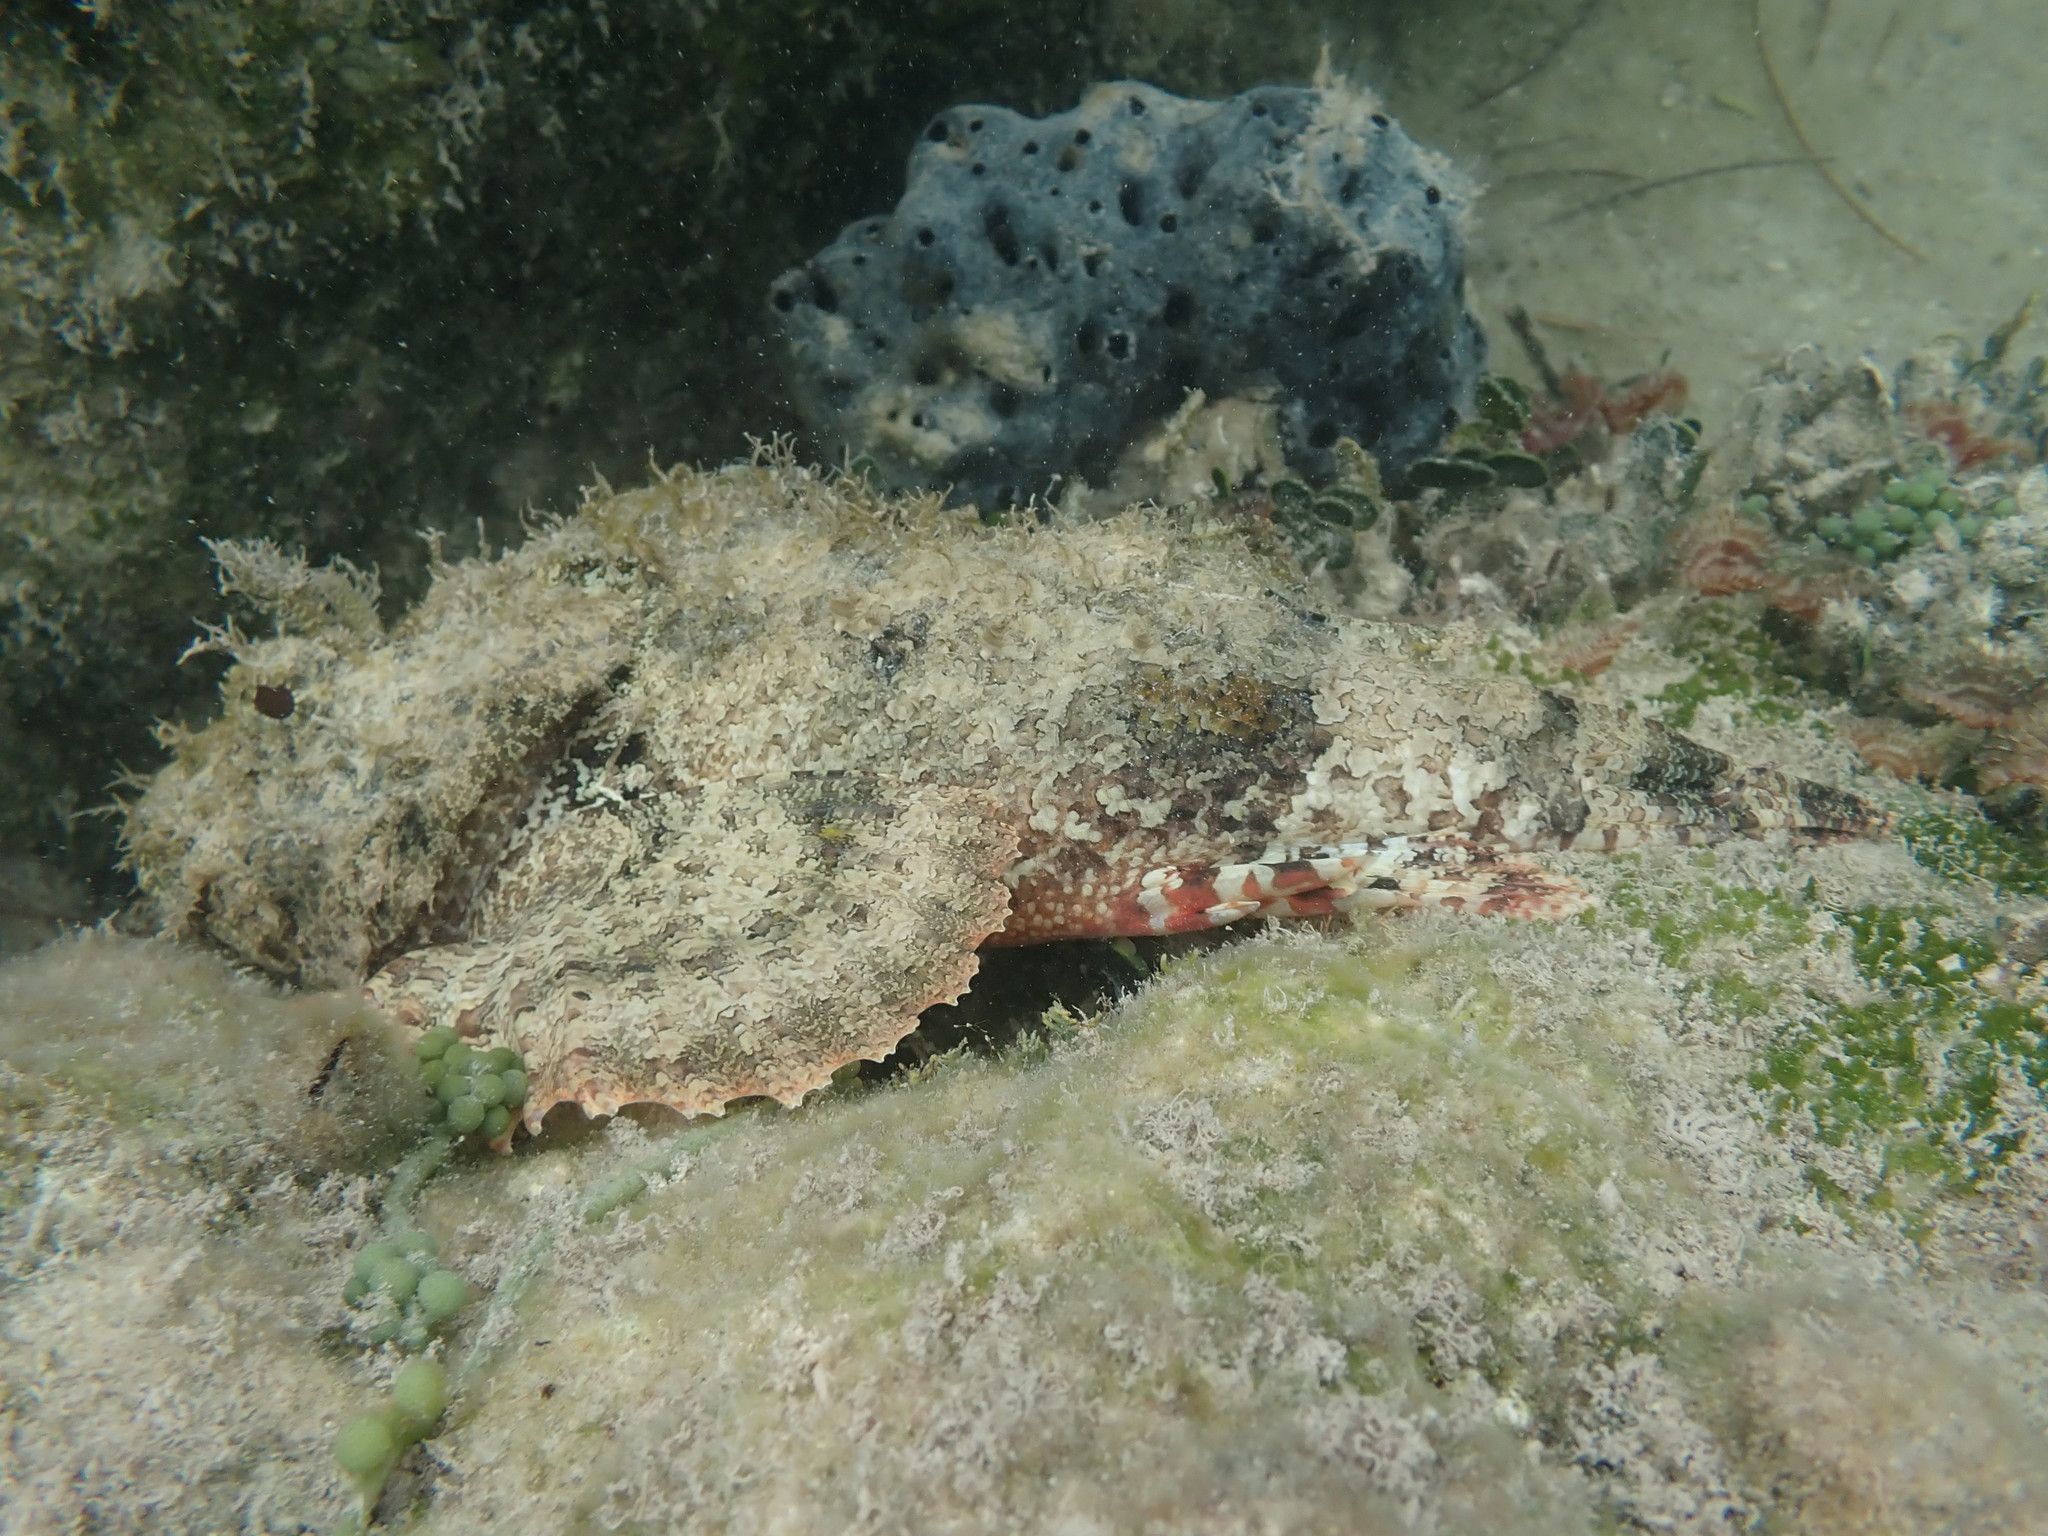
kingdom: Animalia
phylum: Chordata
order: Scorpaeniformes
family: Scorpaenidae
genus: Scorpaena
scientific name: Scorpaena plumieri
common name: Spotted scorpionfish
